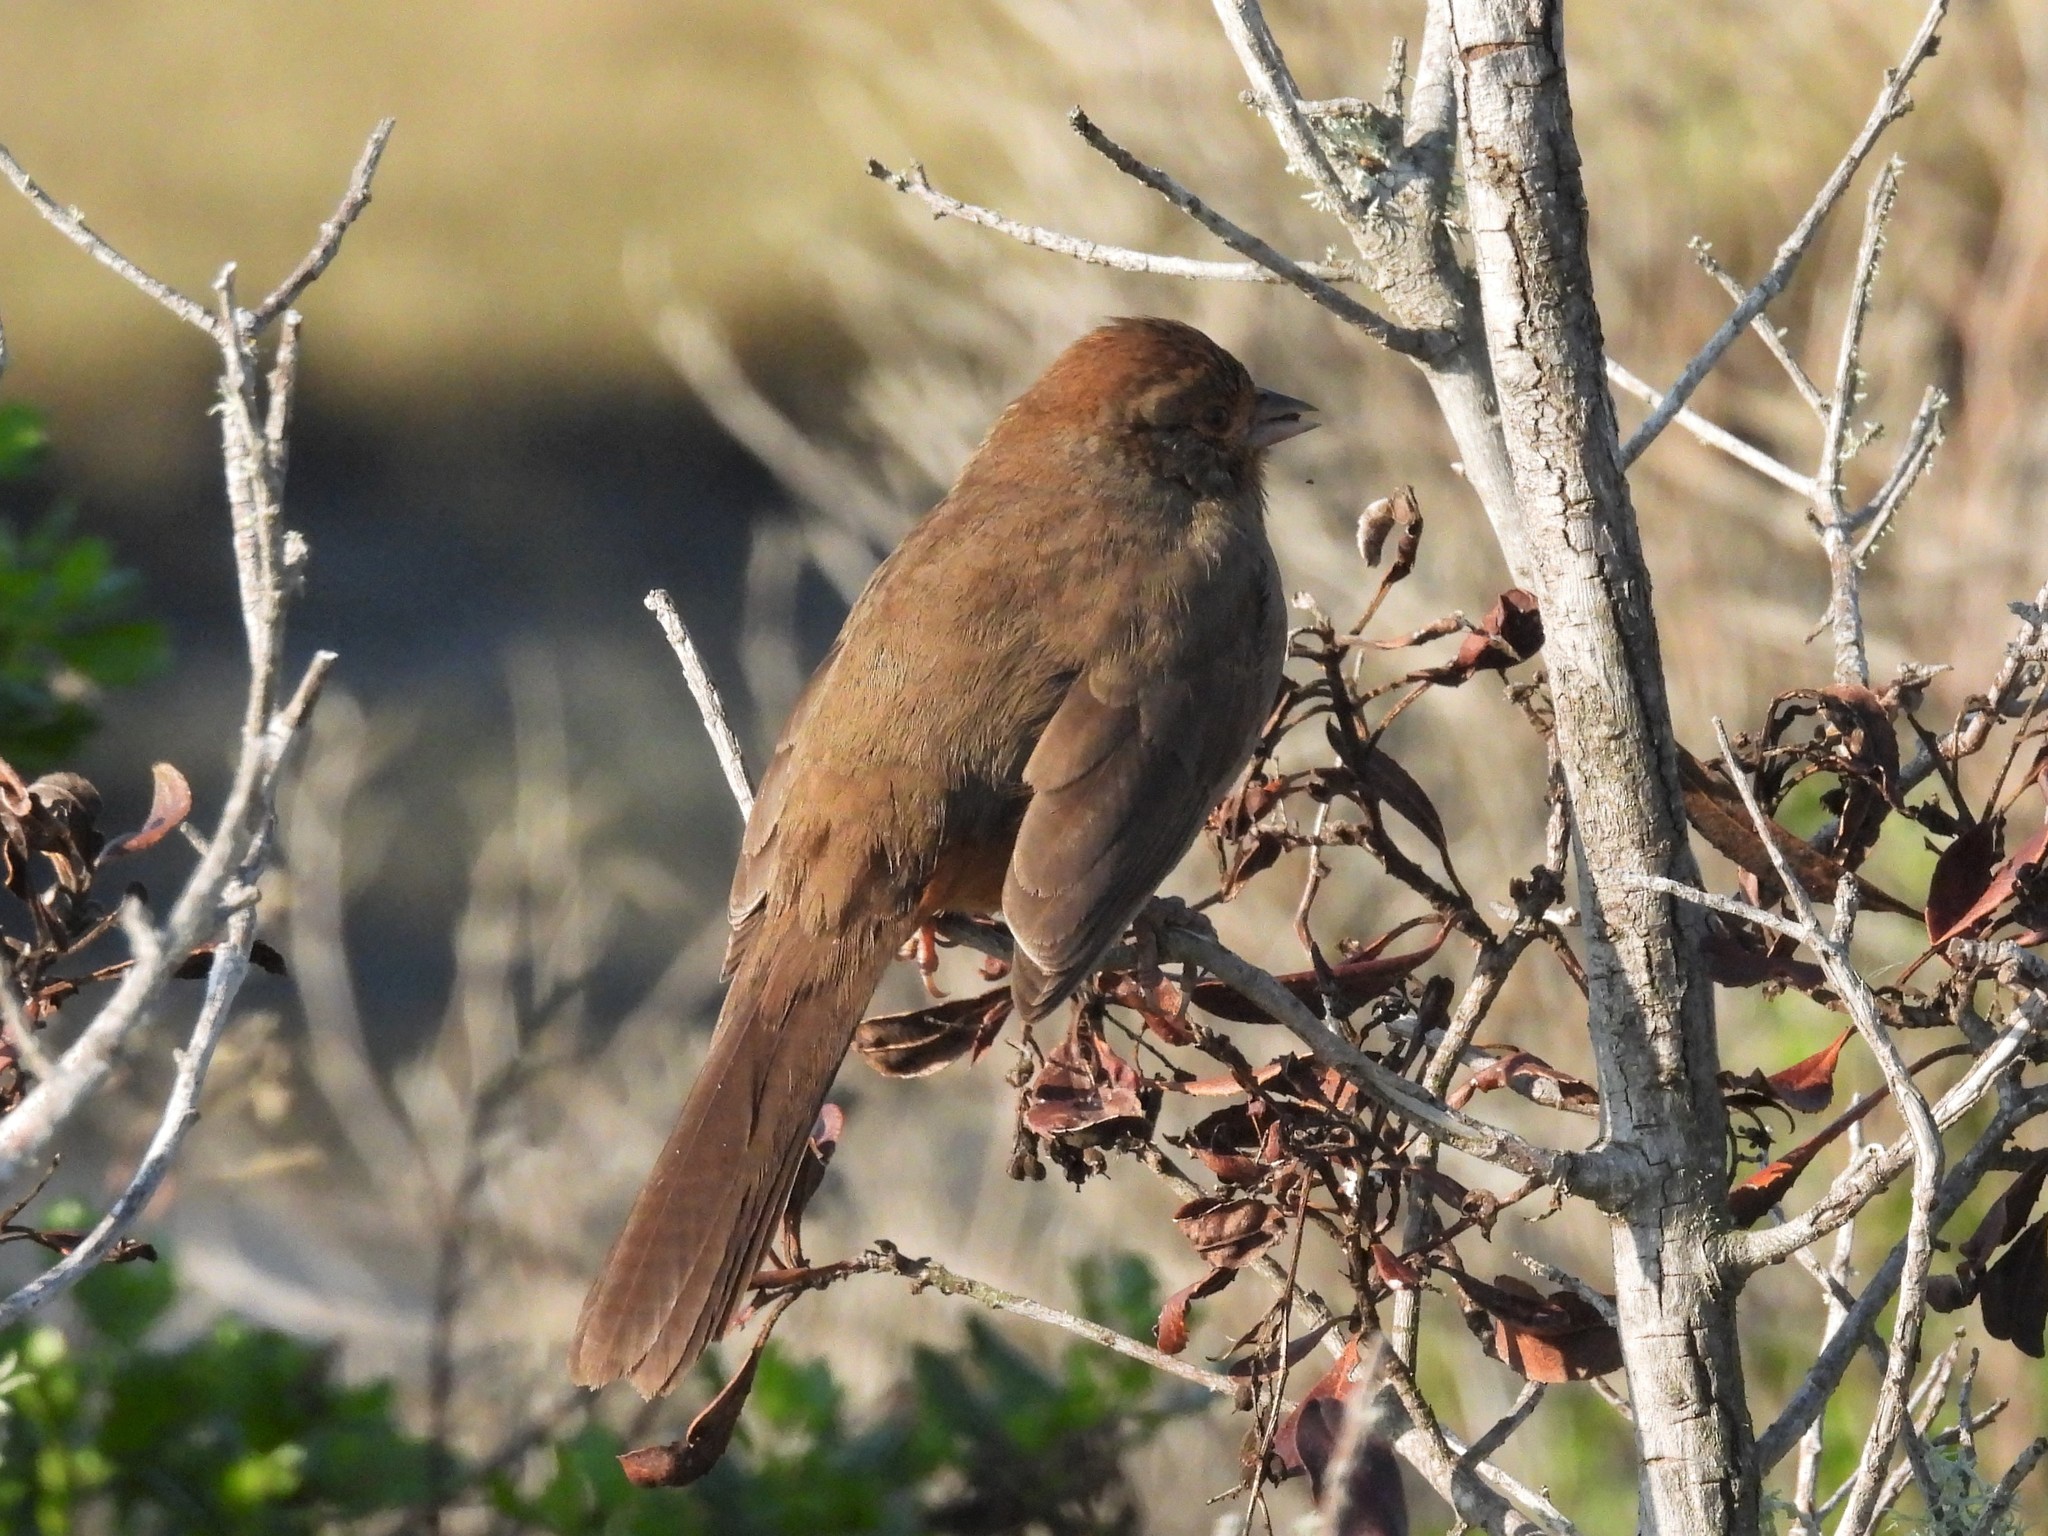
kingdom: Animalia
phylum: Chordata
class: Aves
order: Passeriformes
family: Passerellidae
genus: Melozone
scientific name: Melozone crissalis
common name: California towhee
